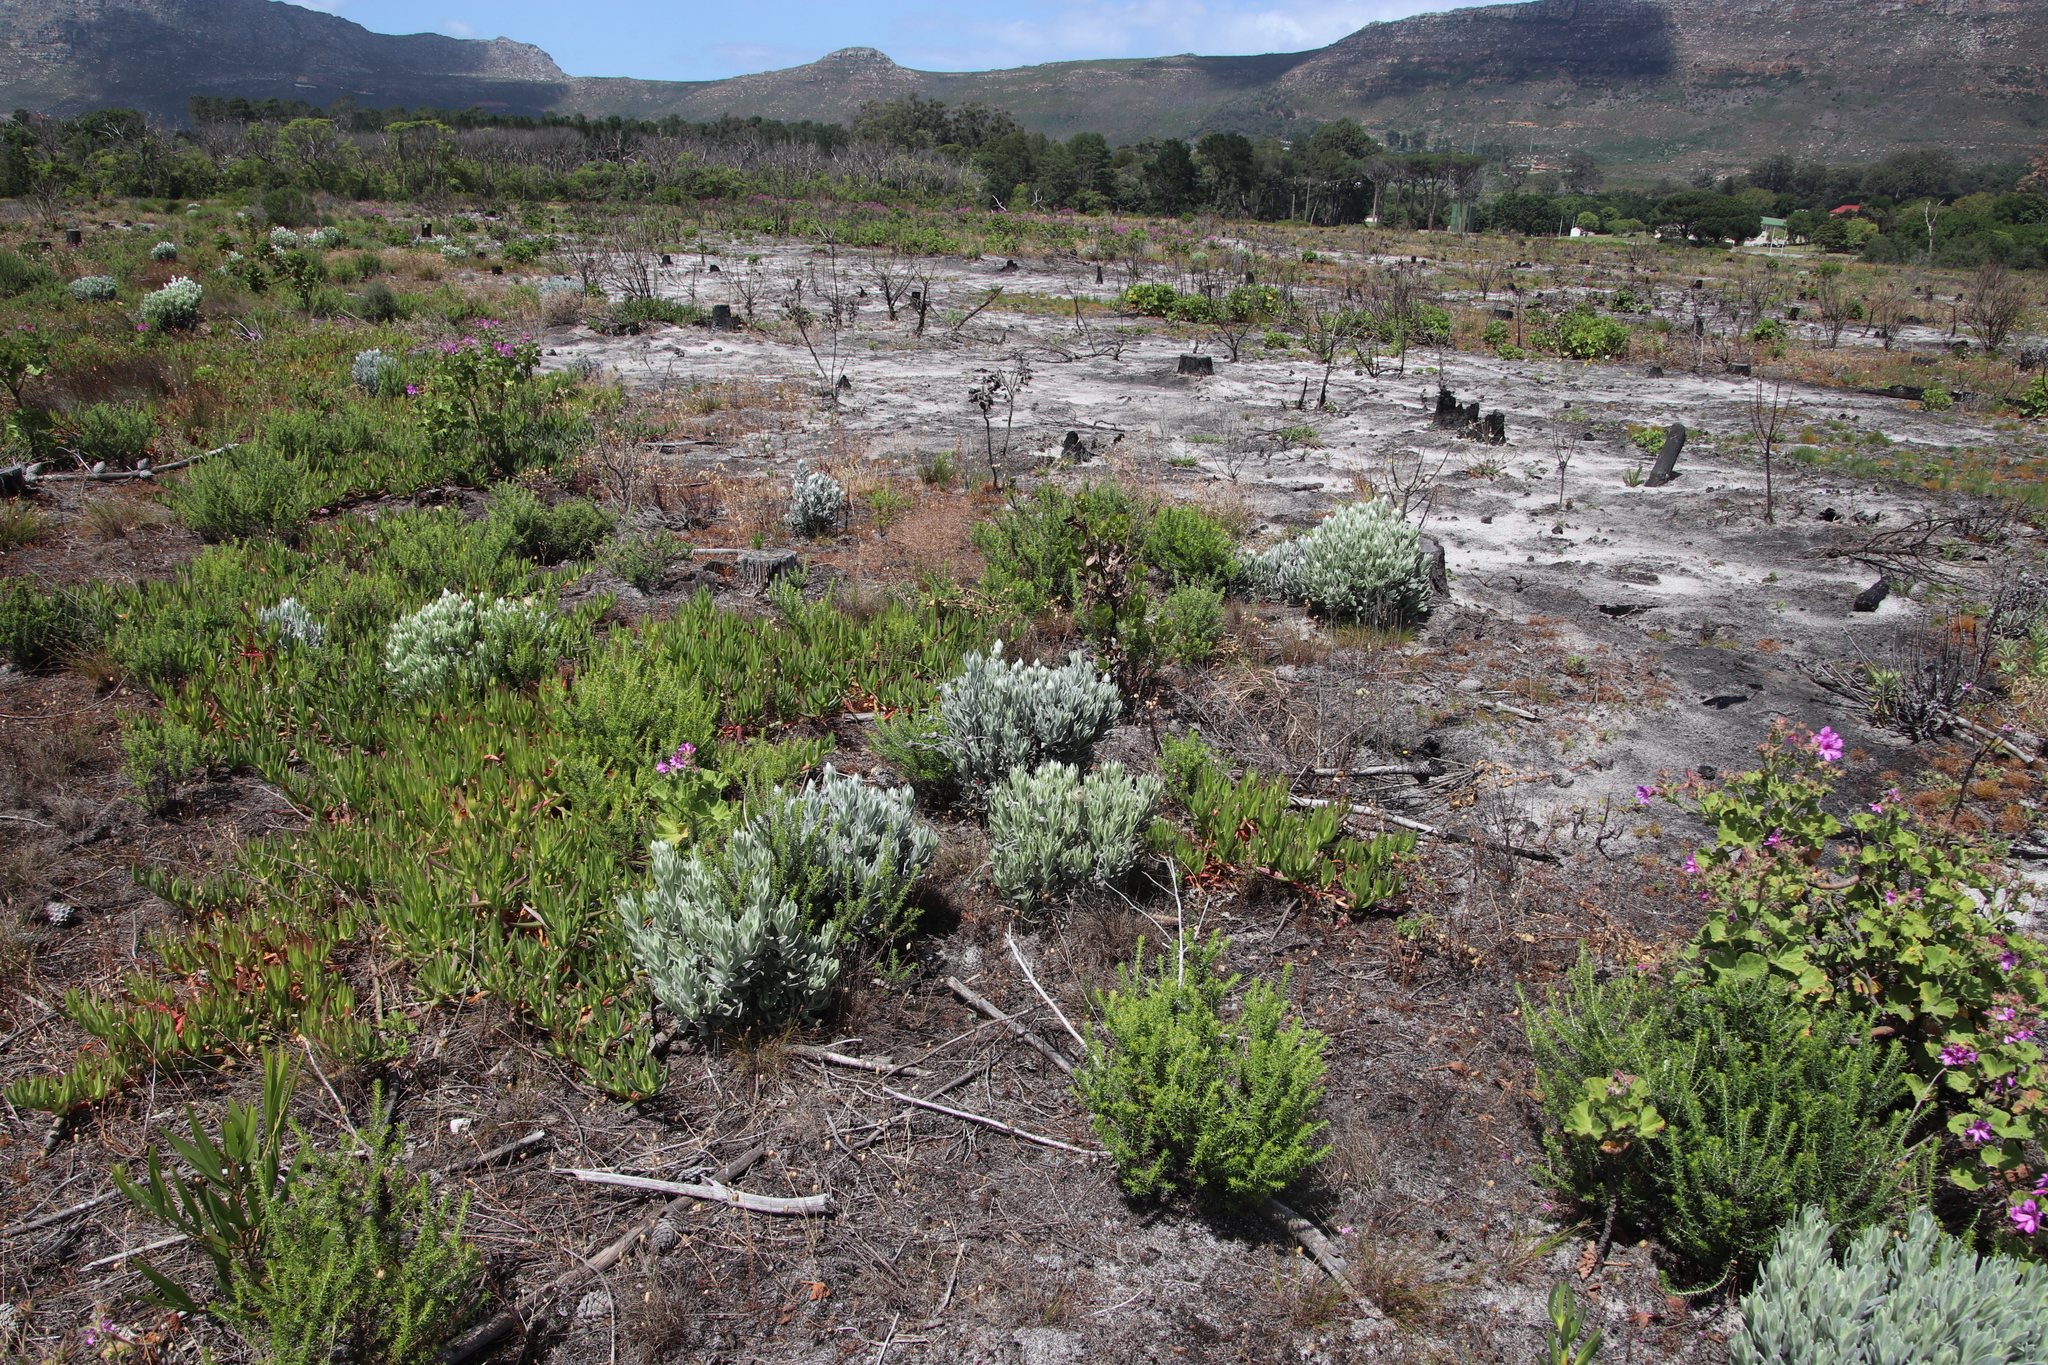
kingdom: Plantae
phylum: Tracheophyta
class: Magnoliopsida
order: Asterales
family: Asteraceae
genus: Syncarpha
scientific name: Syncarpha vestita
